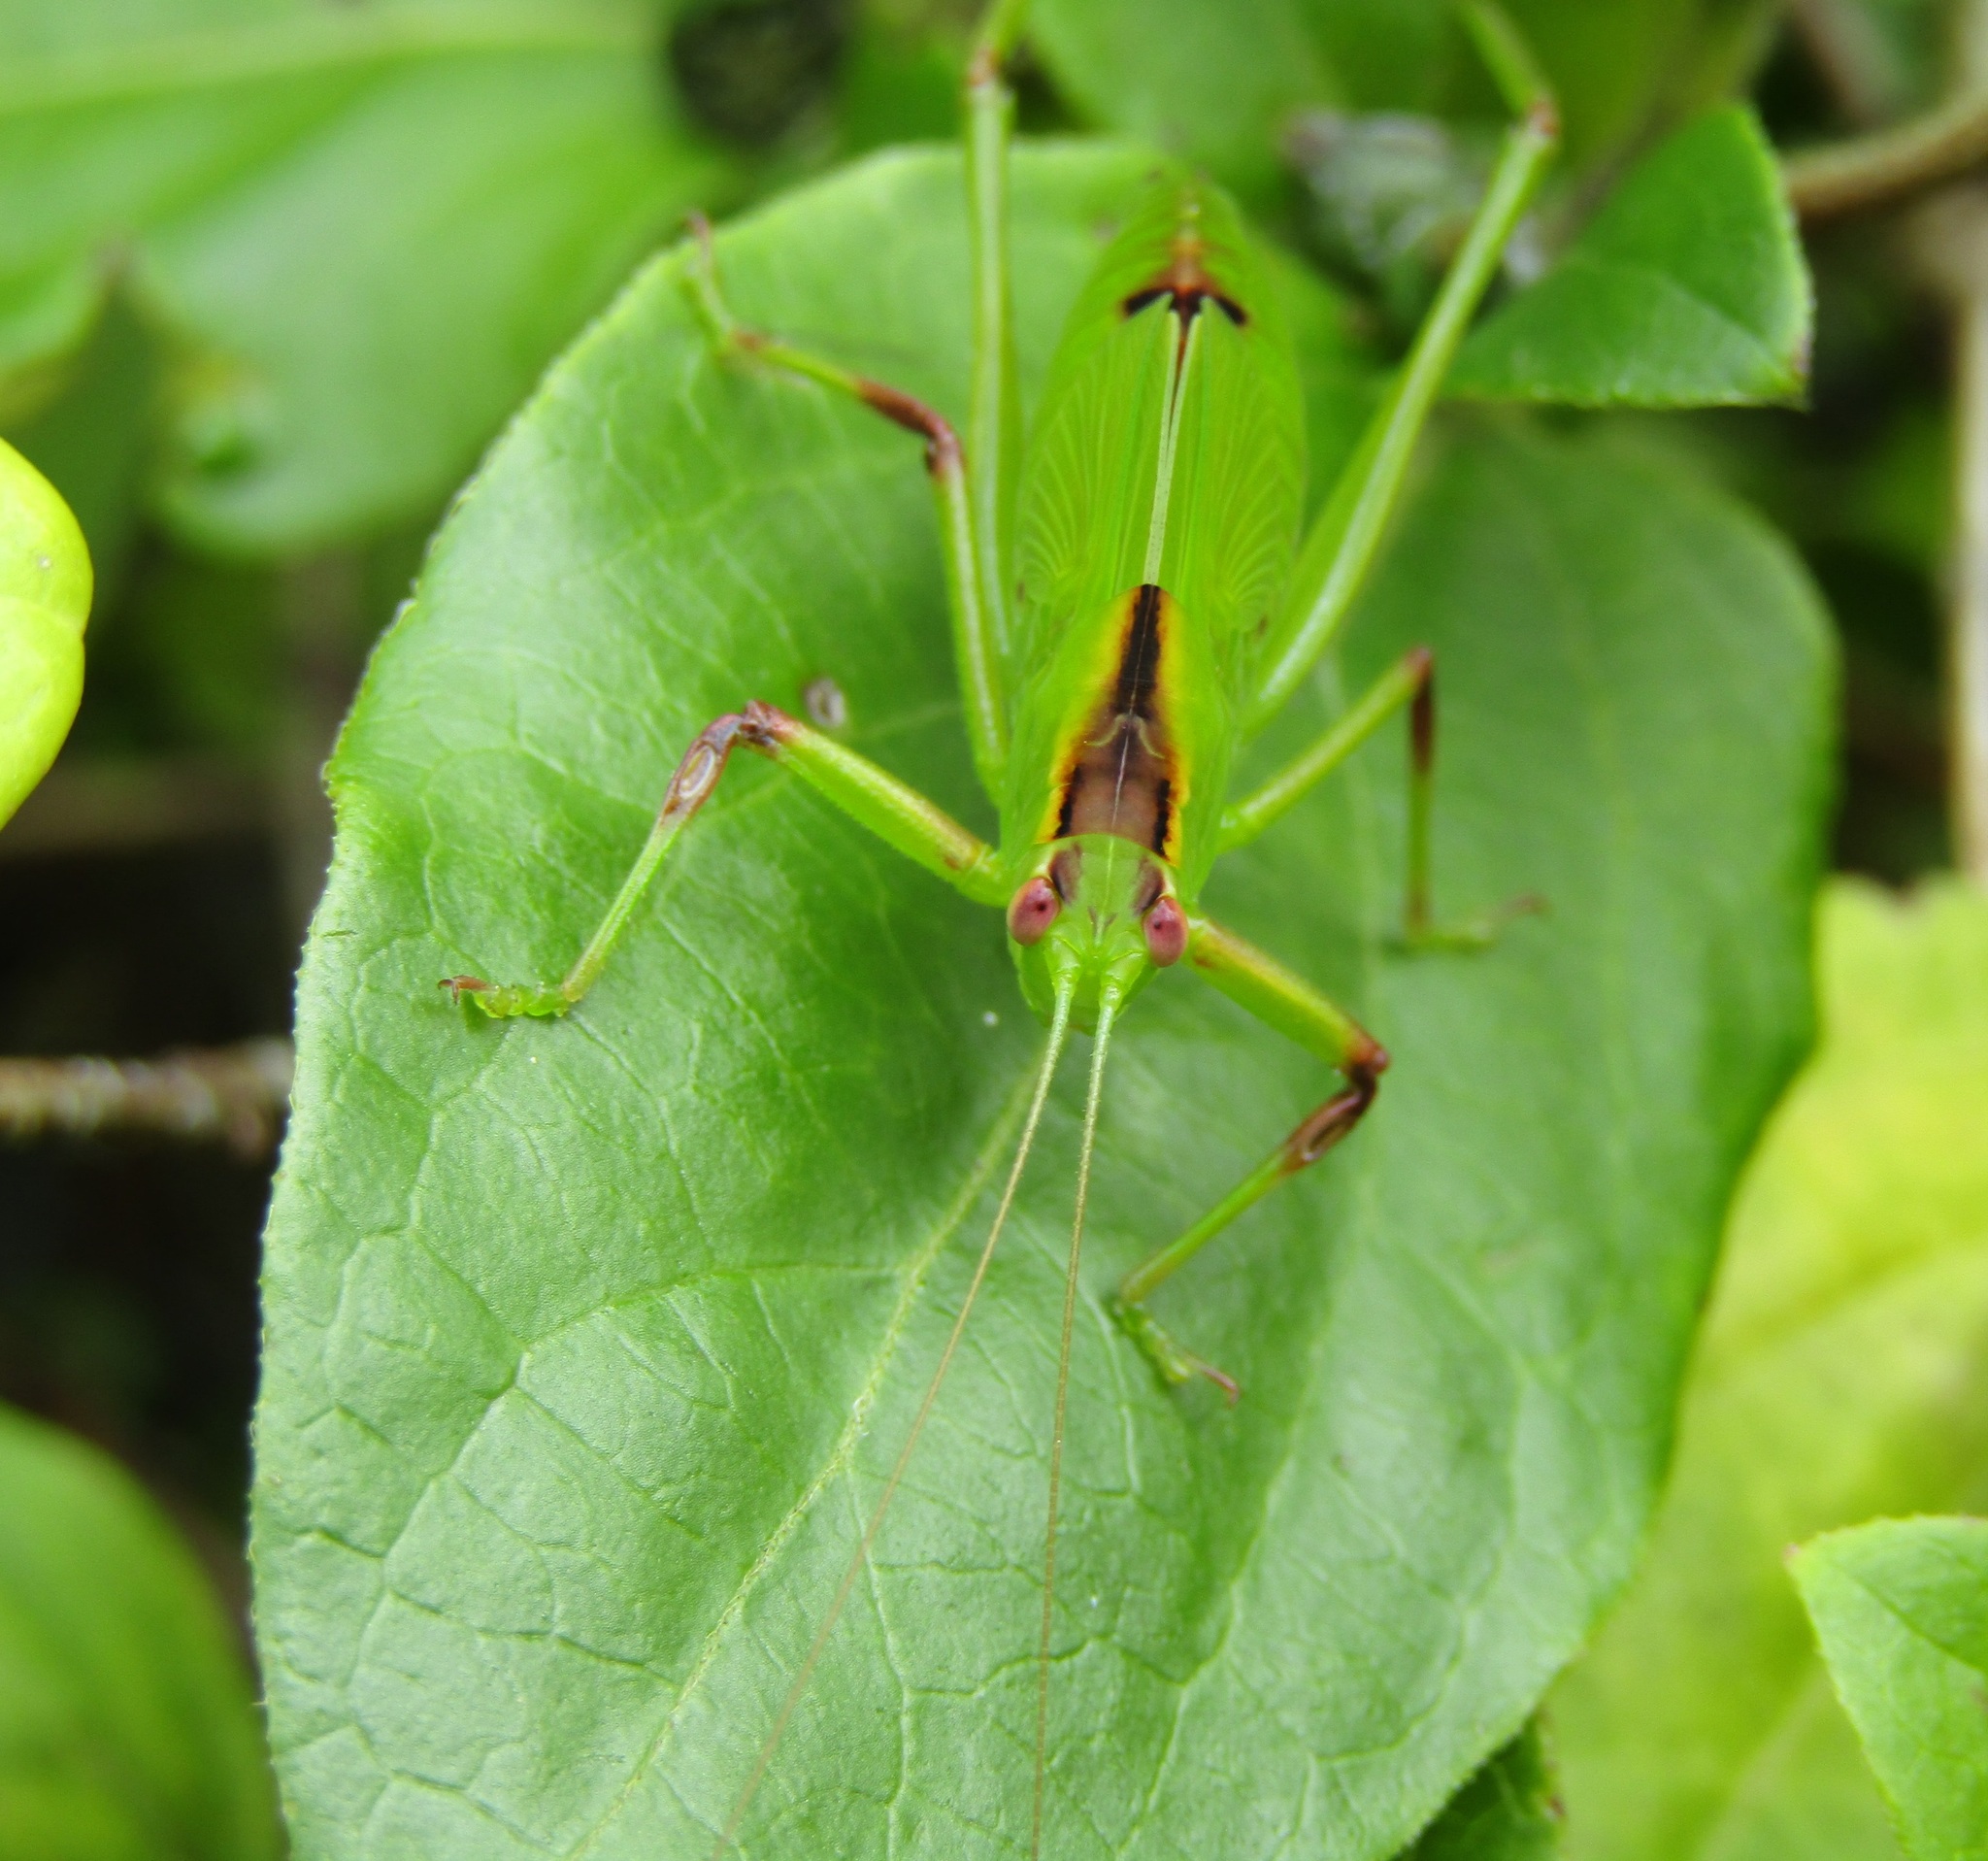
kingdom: Animalia
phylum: Arthropoda
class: Insecta
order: Orthoptera
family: Tettigoniidae
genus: Caedicia
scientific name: Caedicia simplex
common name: Common garden katydid
